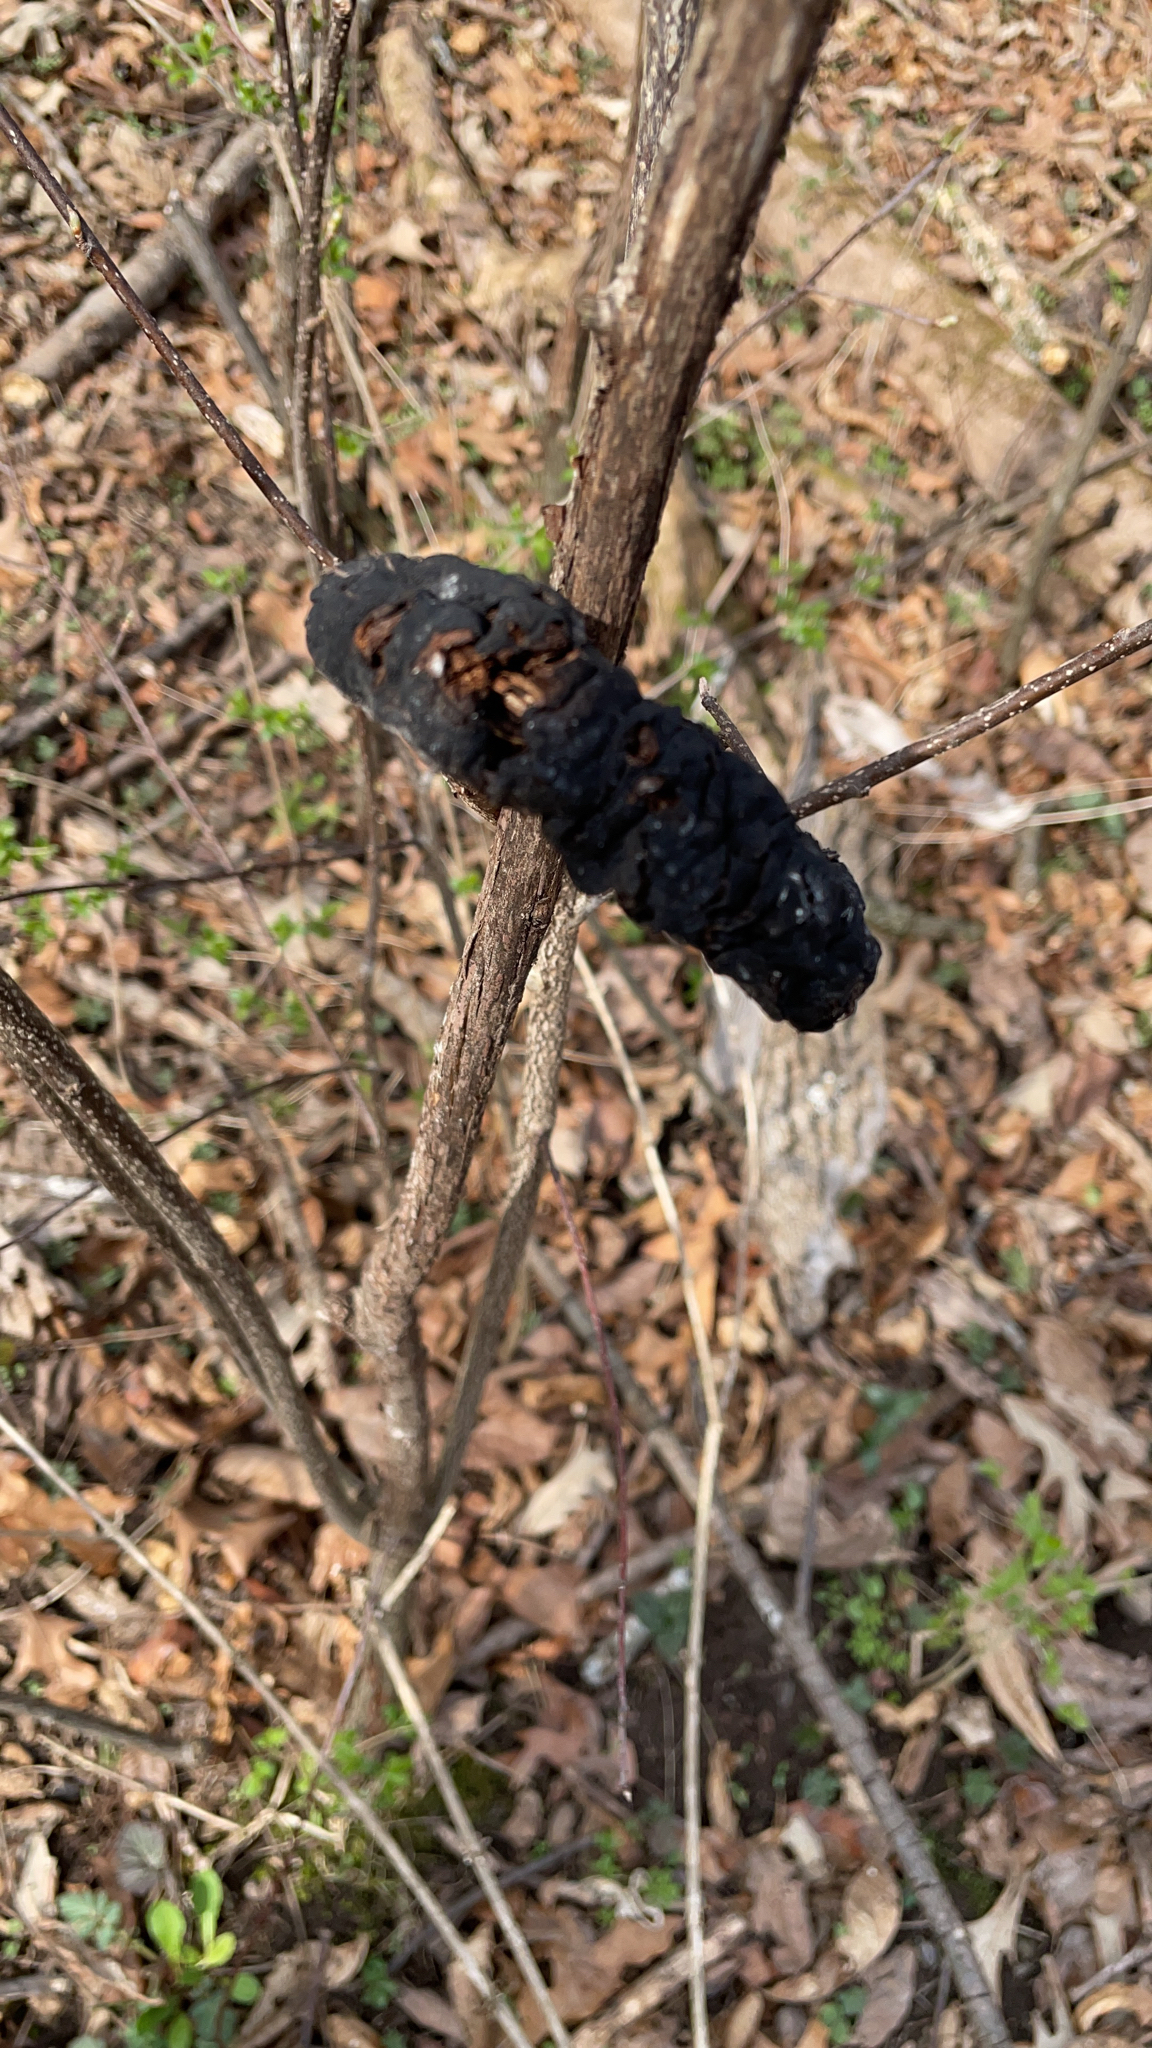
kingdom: Fungi
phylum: Ascomycota
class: Dothideomycetes
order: Venturiales
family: Venturiaceae
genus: Apiosporina
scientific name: Apiosporina morbosa
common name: Black knot
